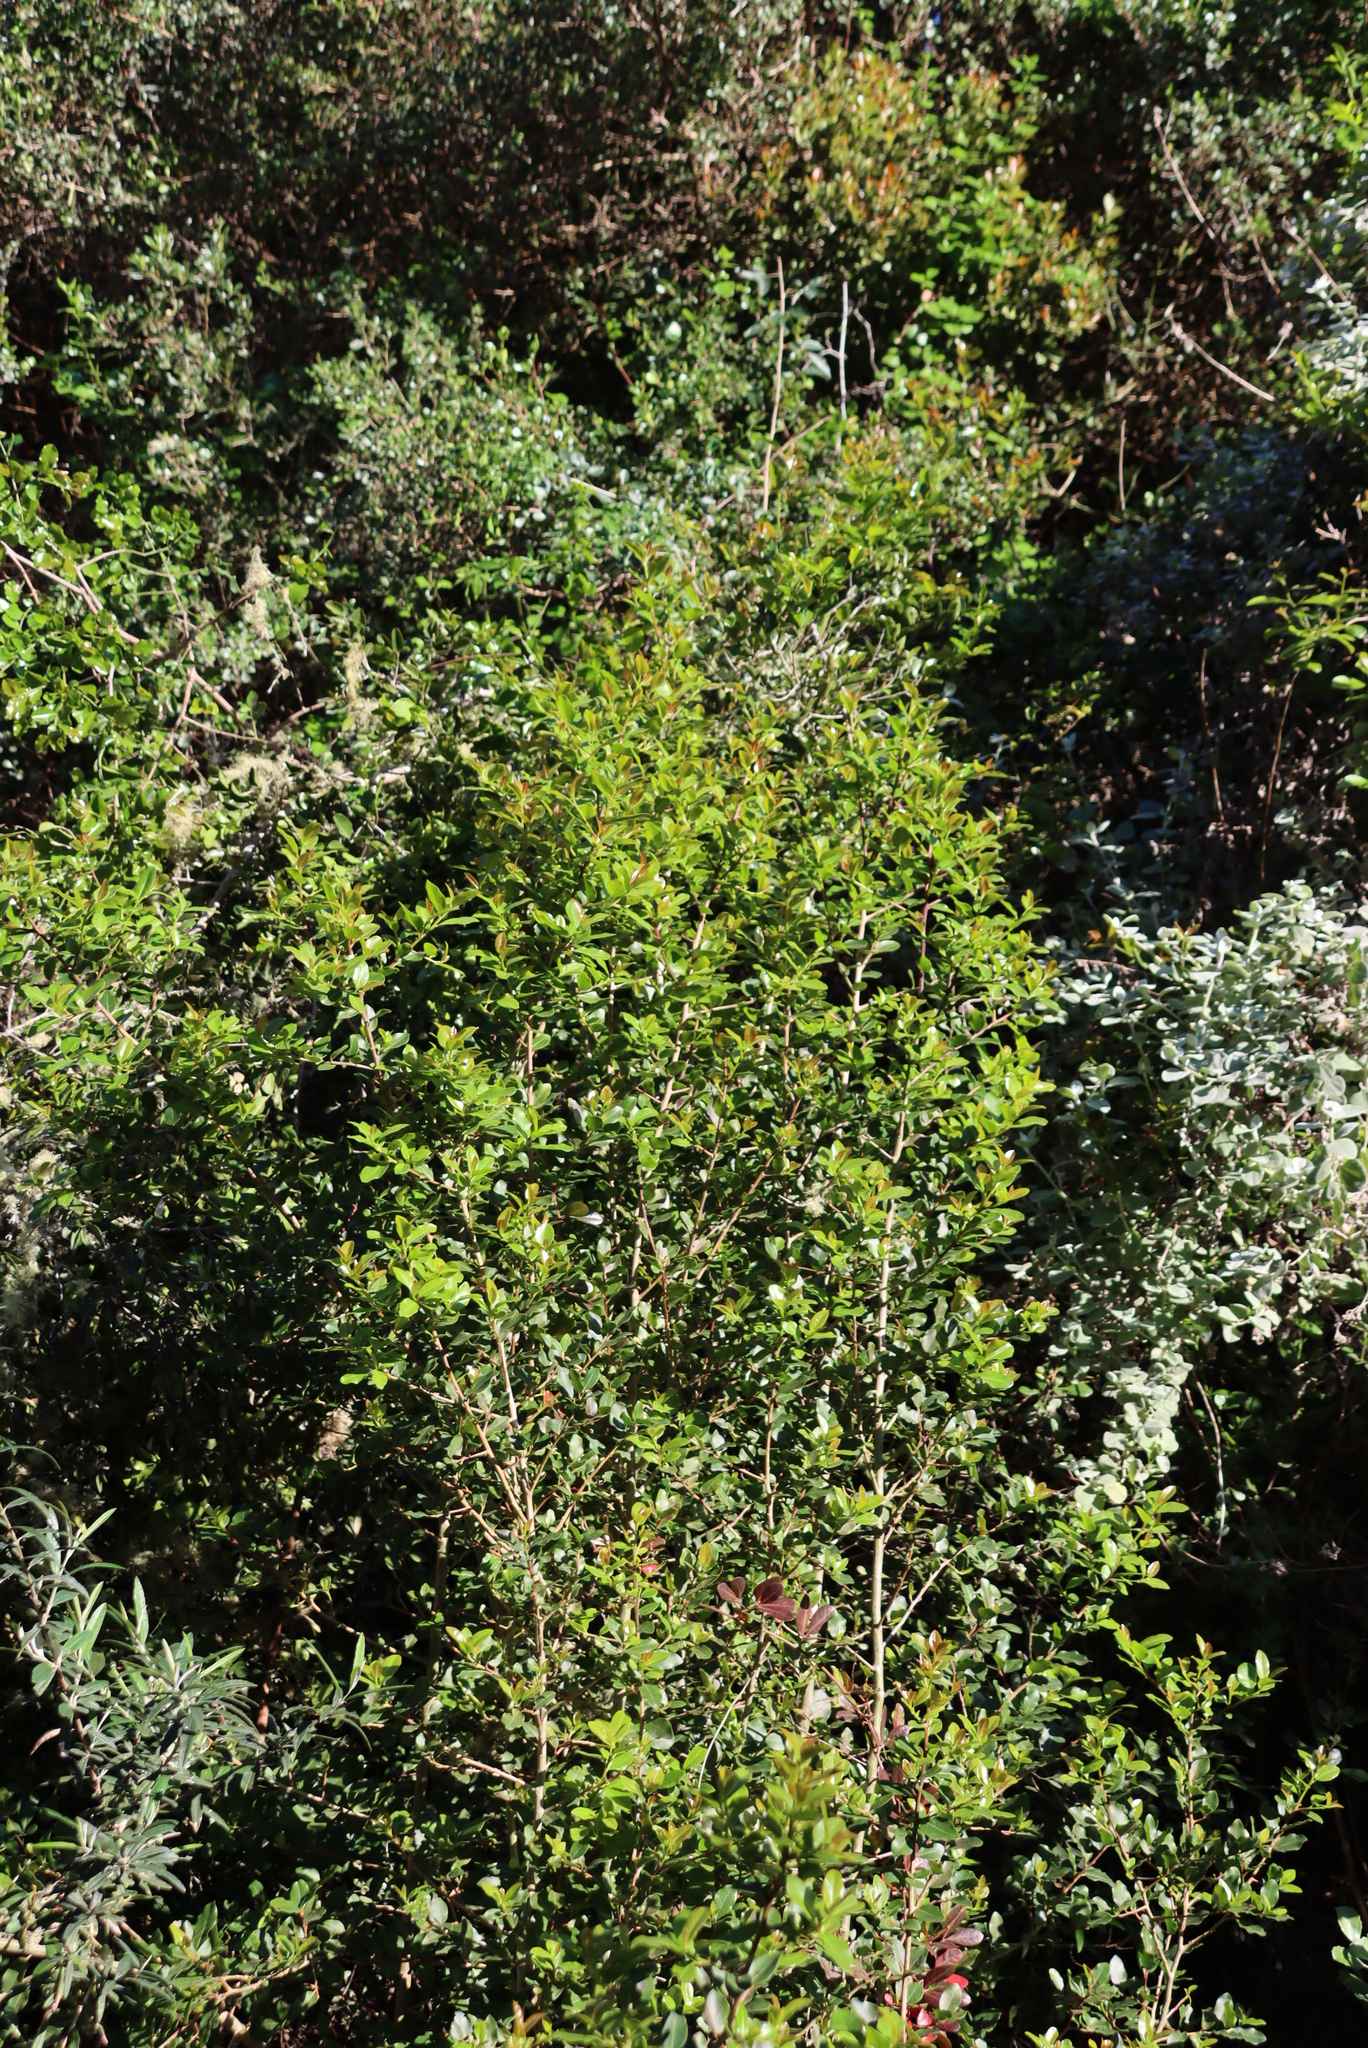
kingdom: Plantae
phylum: Tracheophyta
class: Magnoliopsida
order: Metteniusales
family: Metteniusaceae
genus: Apodytes
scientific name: Apodytes dimidiata
